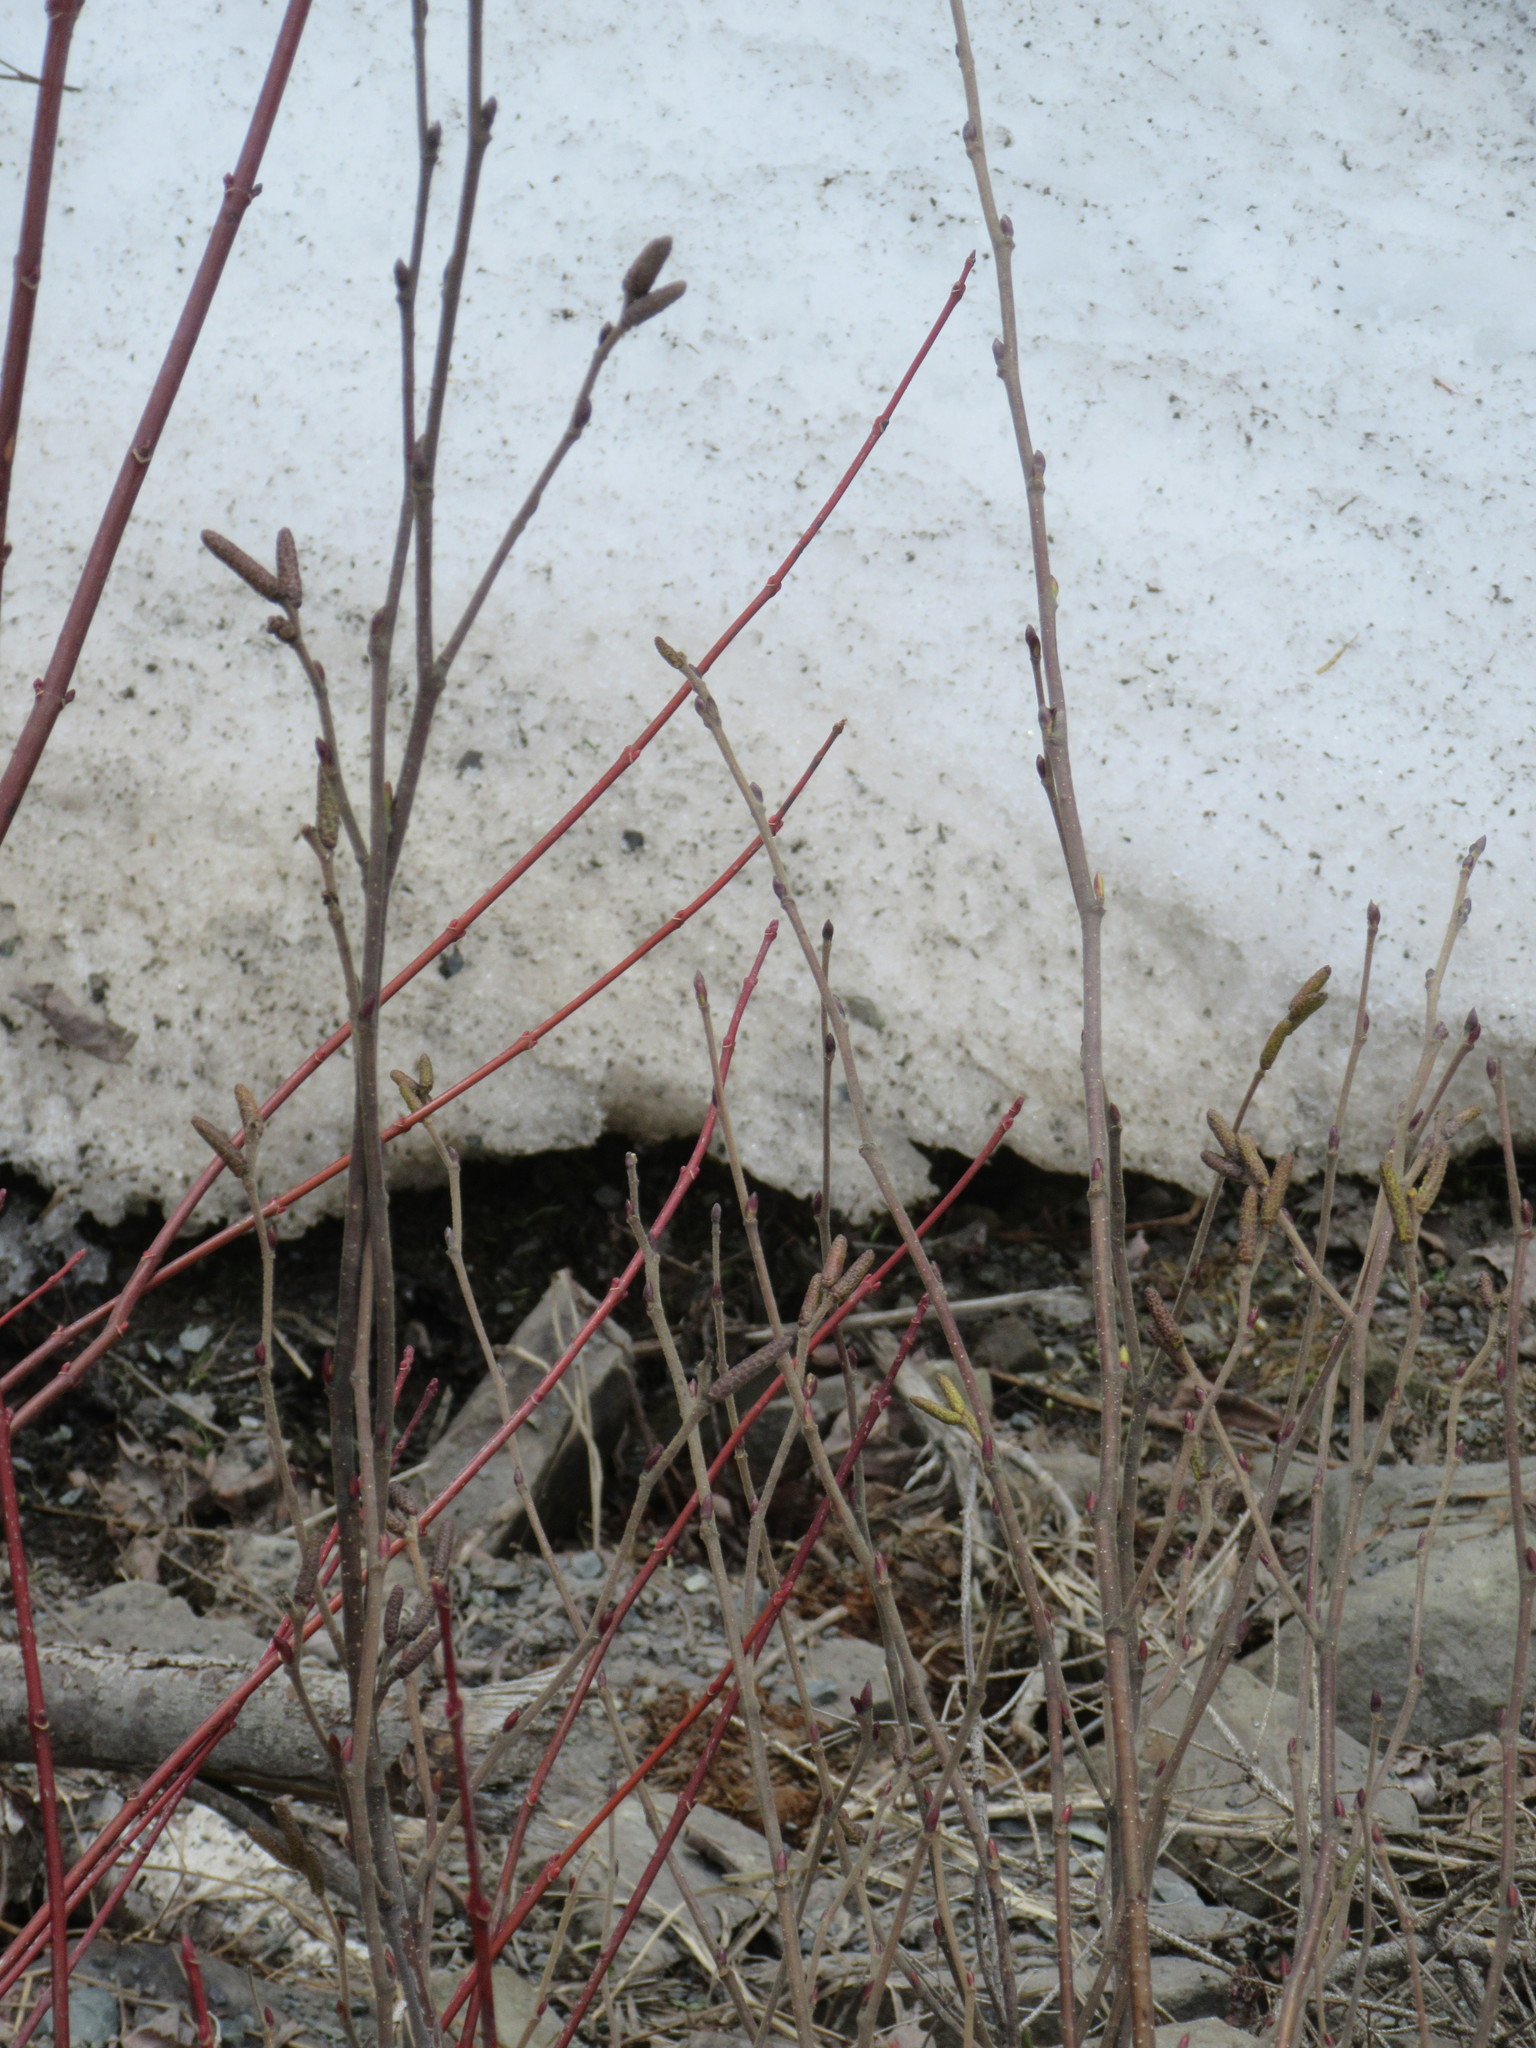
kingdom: Plantae
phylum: Tracheophyta
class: Magnoliopsida
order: Fagales
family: Betulaceae
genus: Alnus
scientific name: Alnus alnobetula
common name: Green alder
